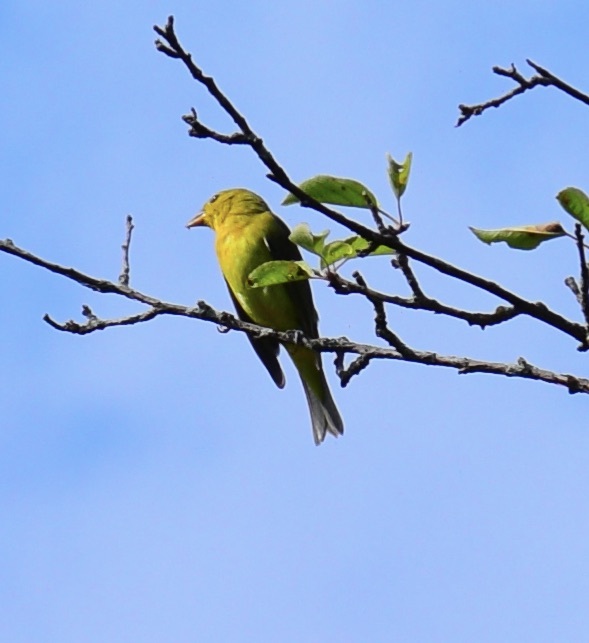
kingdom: Animalia
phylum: Chordata
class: Aves
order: Passeriformes
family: Cardinalidae
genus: Piranga
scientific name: Piranga olivacea
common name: Scarlet tanager
